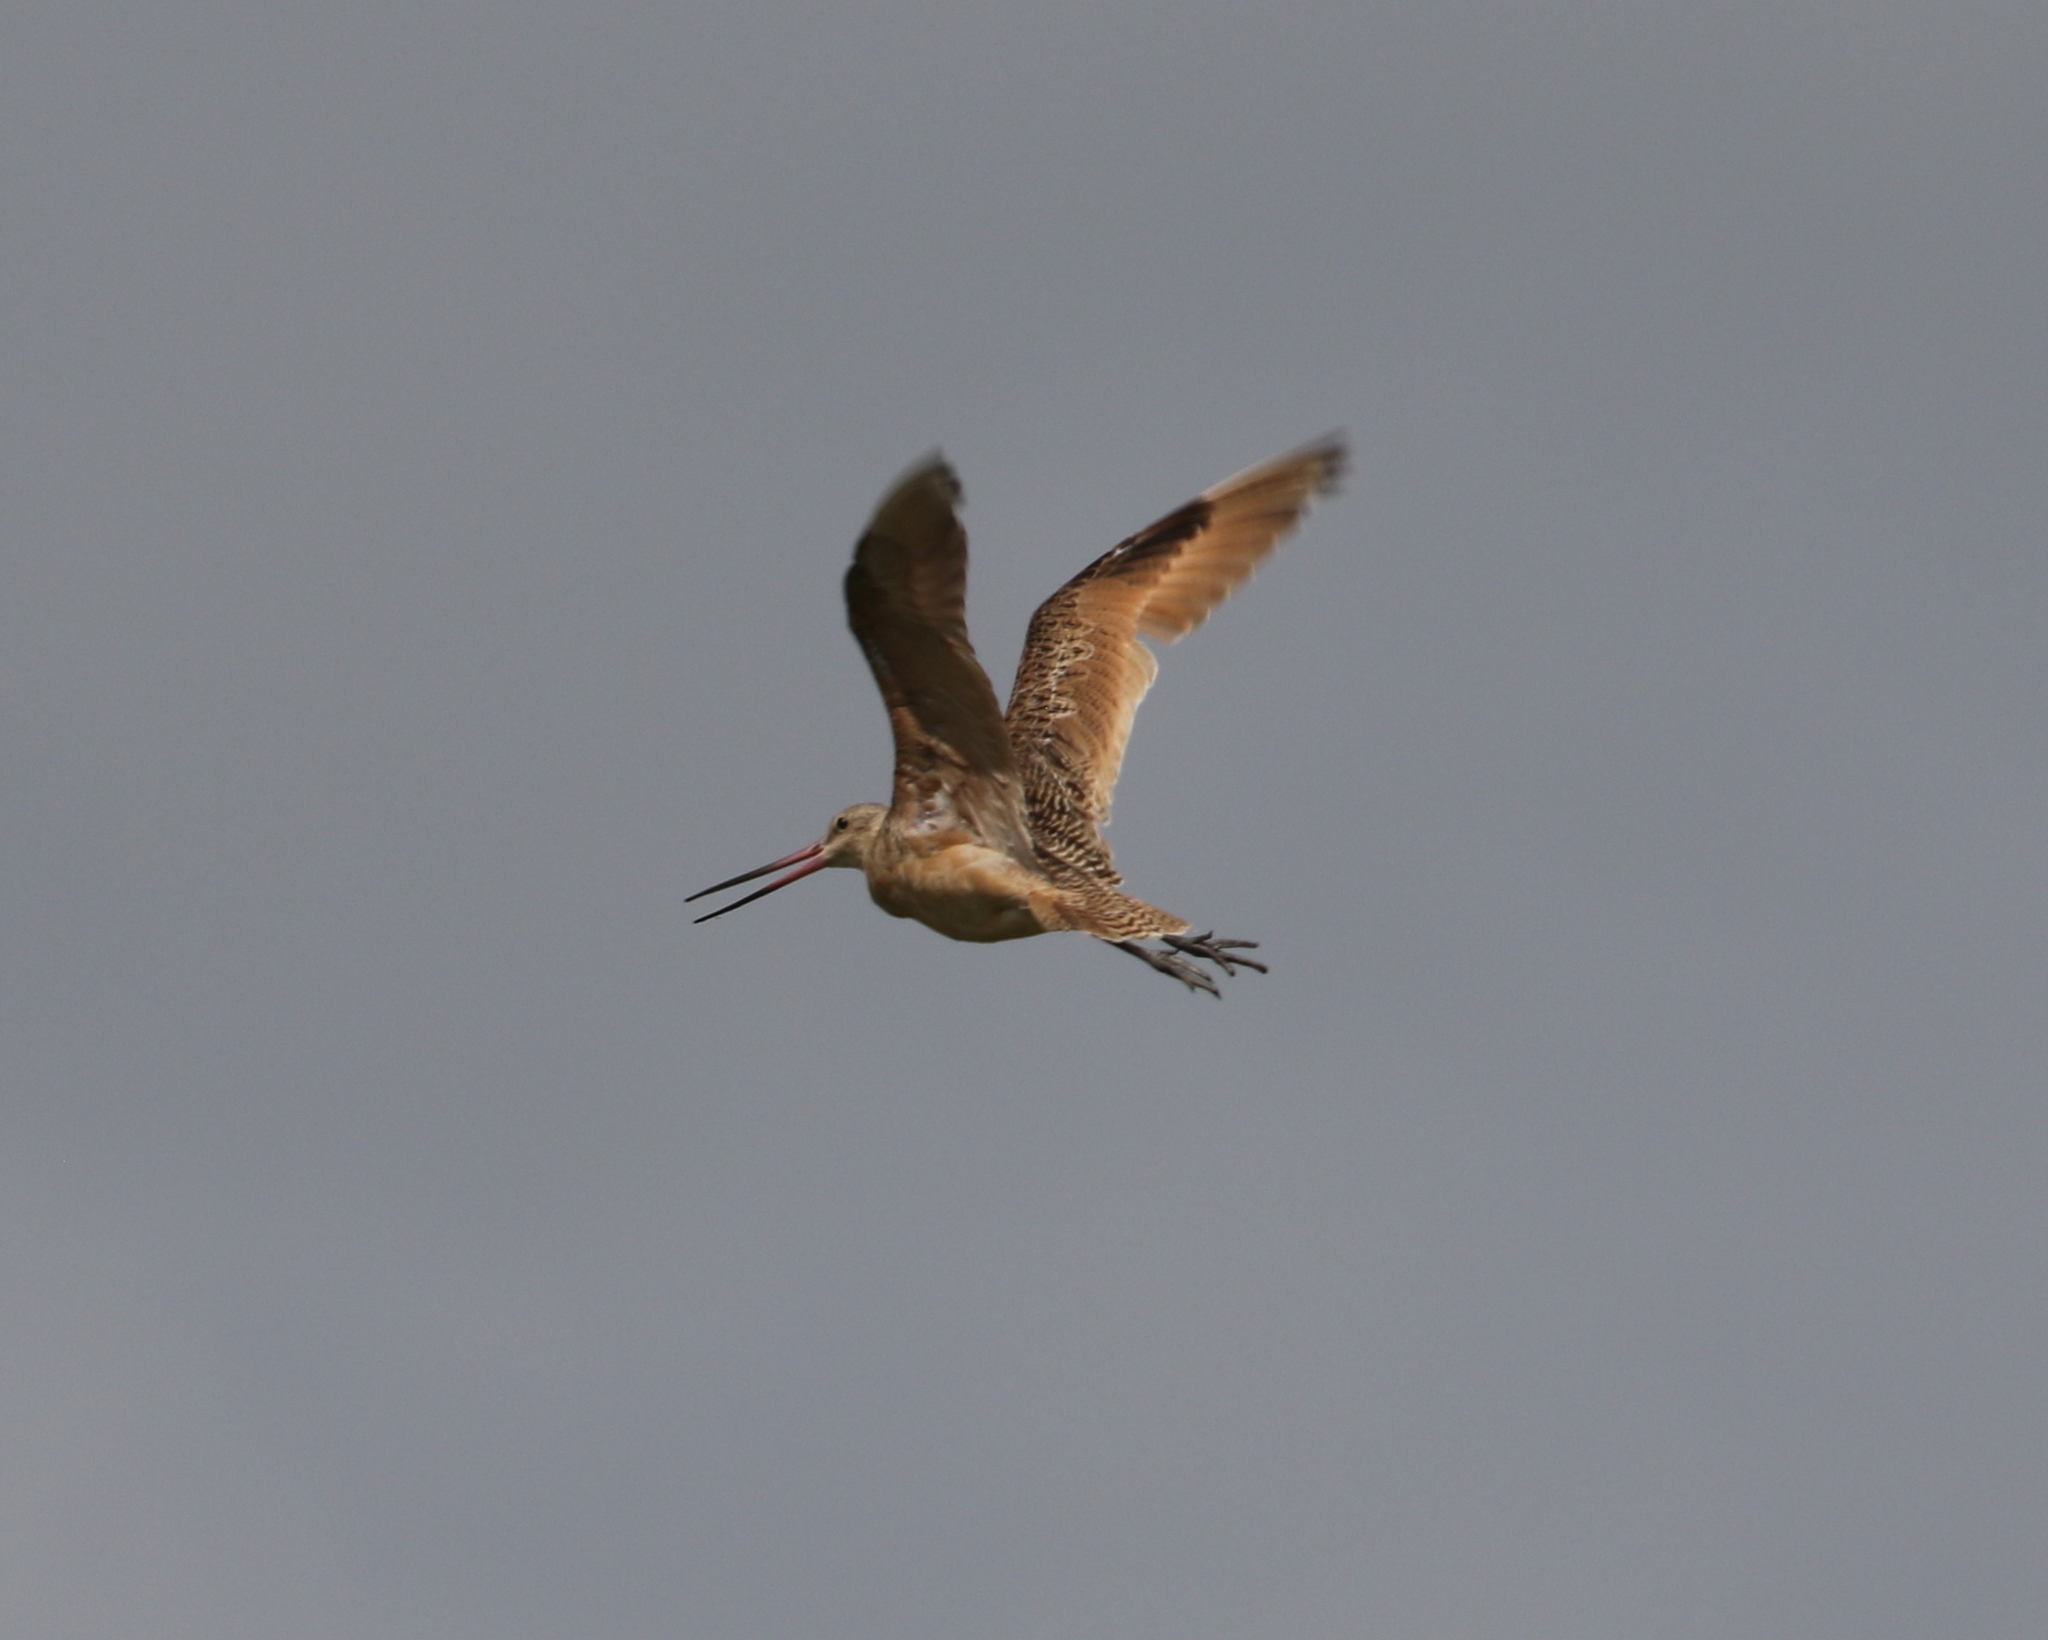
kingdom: Animalia
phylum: Chordata
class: Aves
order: Charadriiformes
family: Scolopacidae
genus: Limosa
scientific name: Limosa fedoa
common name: Marbled godwit
